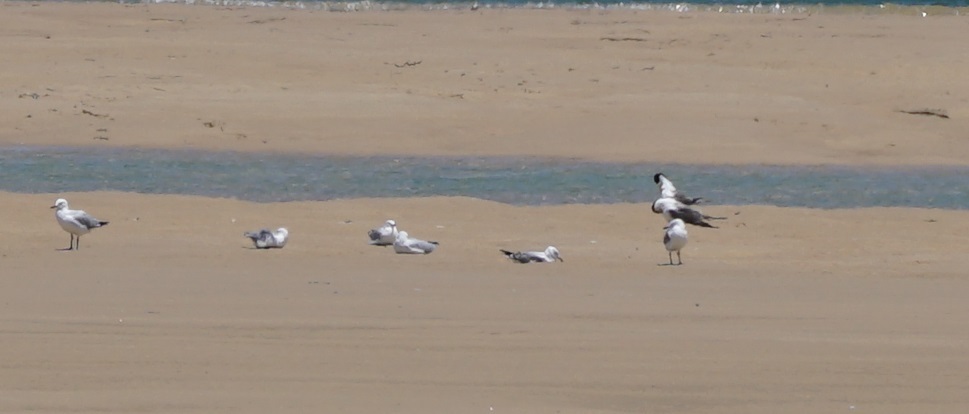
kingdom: Animalia
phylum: Chordata
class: Aves
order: Charadriiformes
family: Laridae
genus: Chroicocephalus
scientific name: Chroicocephalus novaehollandiae
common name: Silver gull
